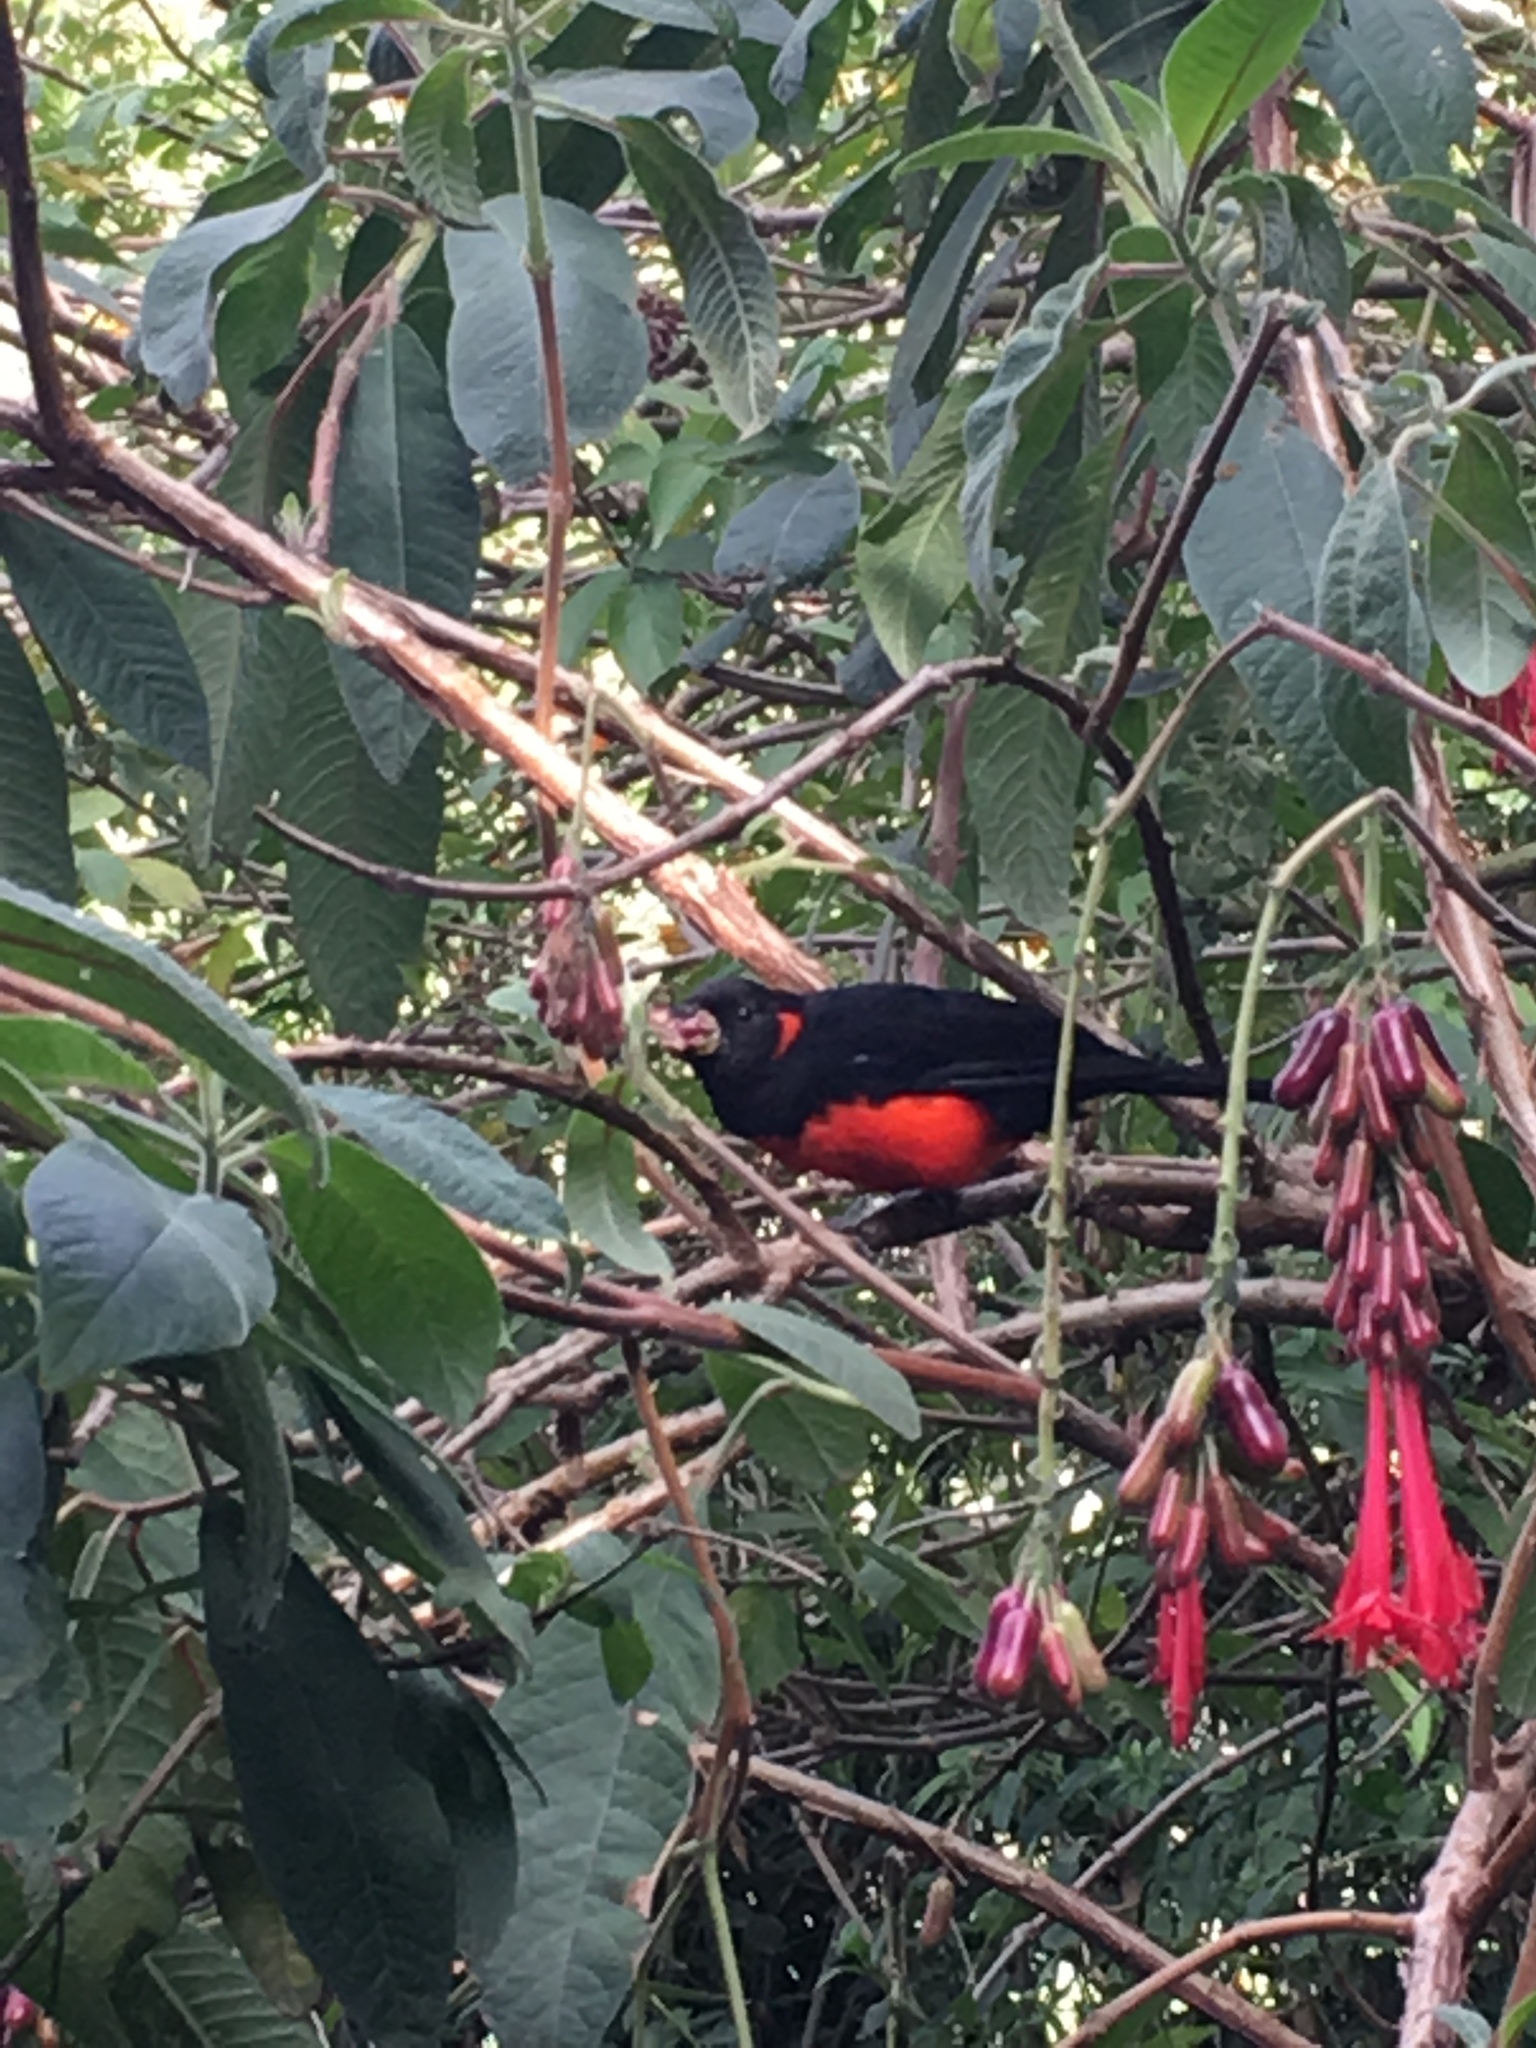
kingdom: Animalia
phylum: Chordata
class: Aves
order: Passeriformes
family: Thraupidae
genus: Anisognathus
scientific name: Anisognathus igniventris
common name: Scarlet-bellied mountain tanager
